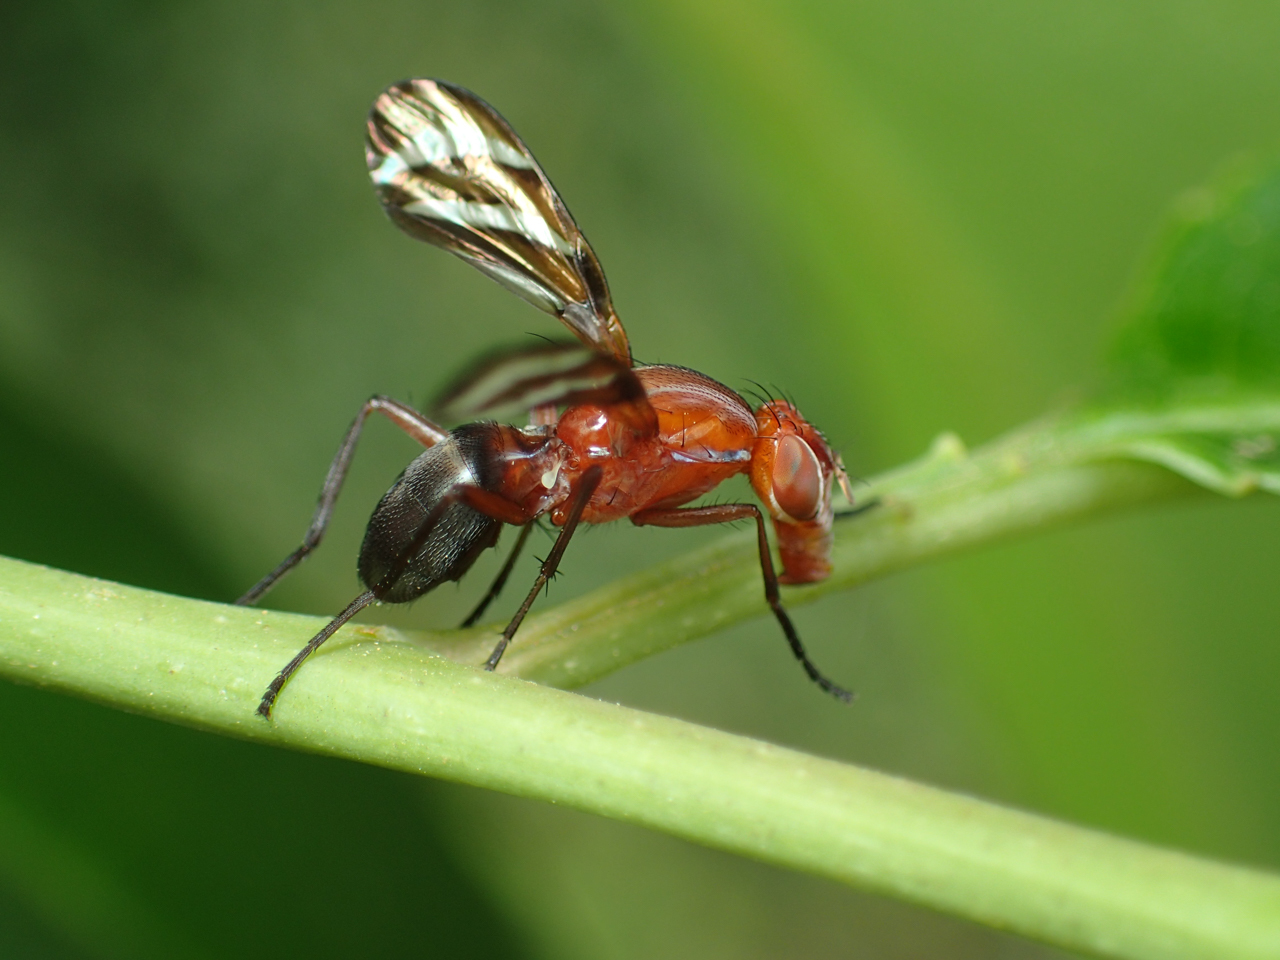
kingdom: Animalia
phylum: Arthropoda
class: Insecta
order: Diptera
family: Ulidiidae
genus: Tritoxa
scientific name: Tritoxa incurva
